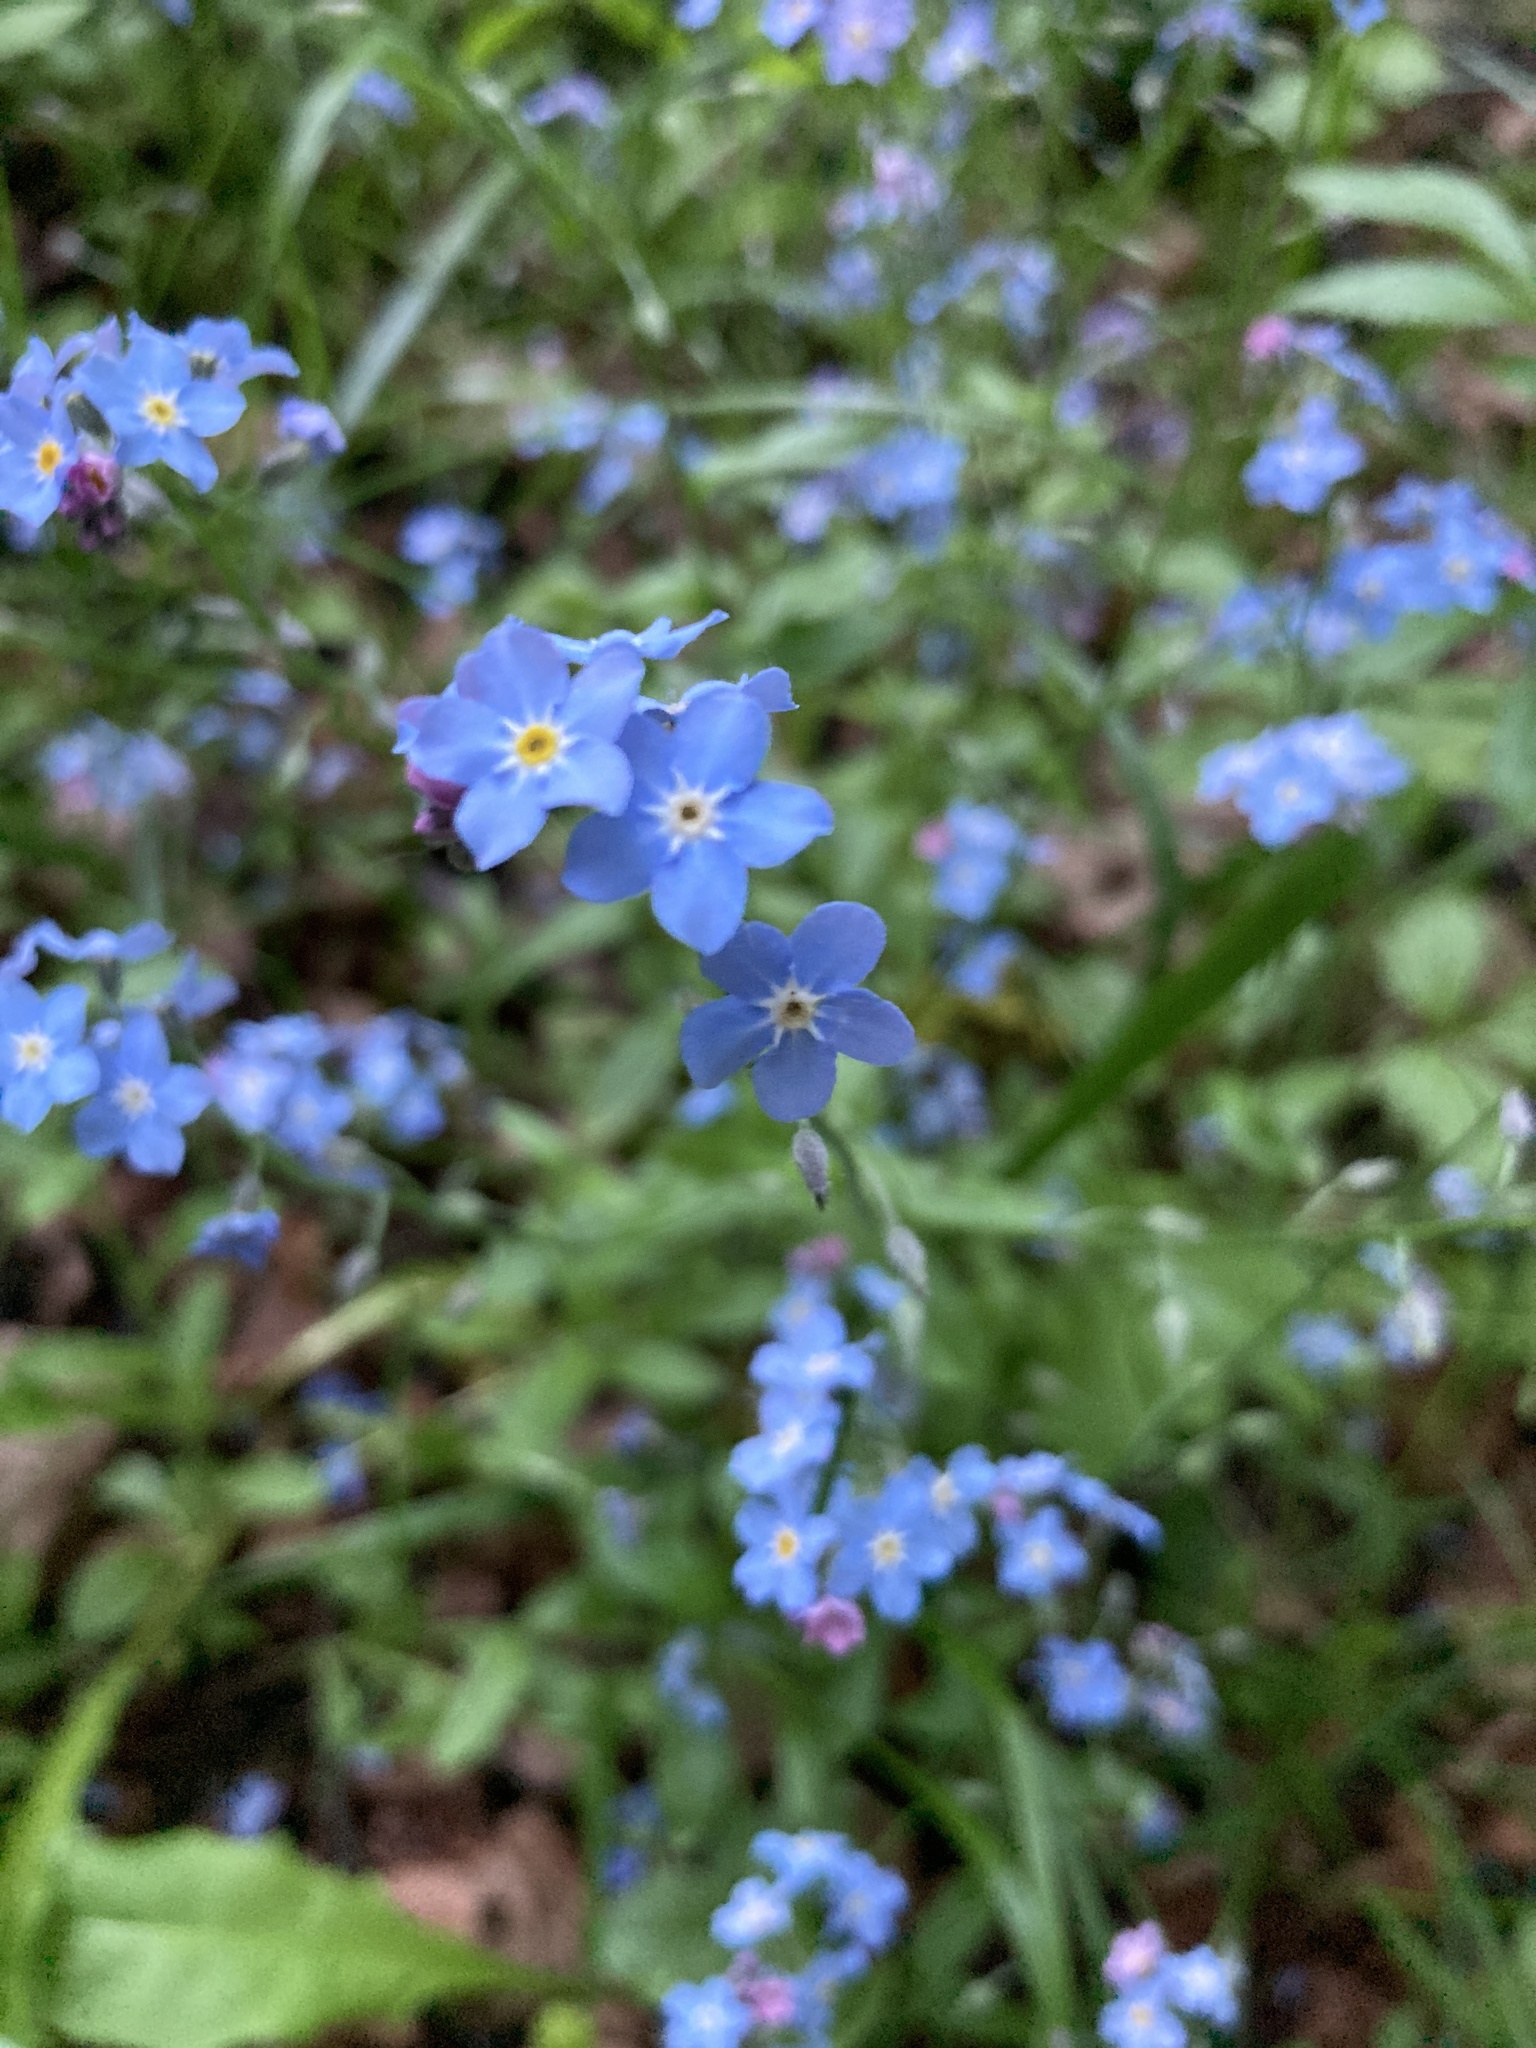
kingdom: Plantae
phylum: Tracheophyta
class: Magnoliopsida
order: Boraginales
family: Boraginaceae
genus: Myosotis
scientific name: Myosotis sylvatica
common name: Wood forget-me-not
